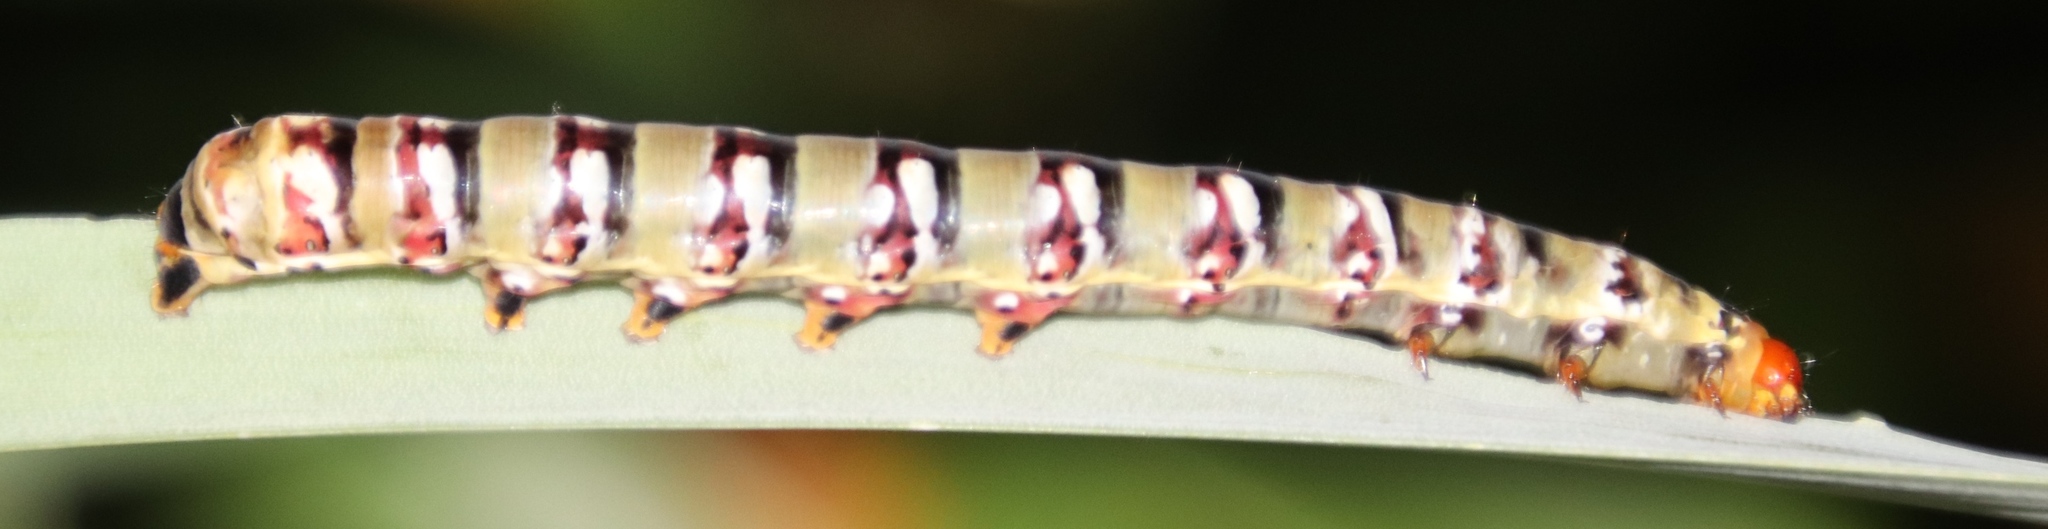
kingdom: Animalia
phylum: Arthropoda
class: Insecta
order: Lepidoptera
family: Noctuidae
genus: Klugeana
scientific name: Klugeana philoxalis
